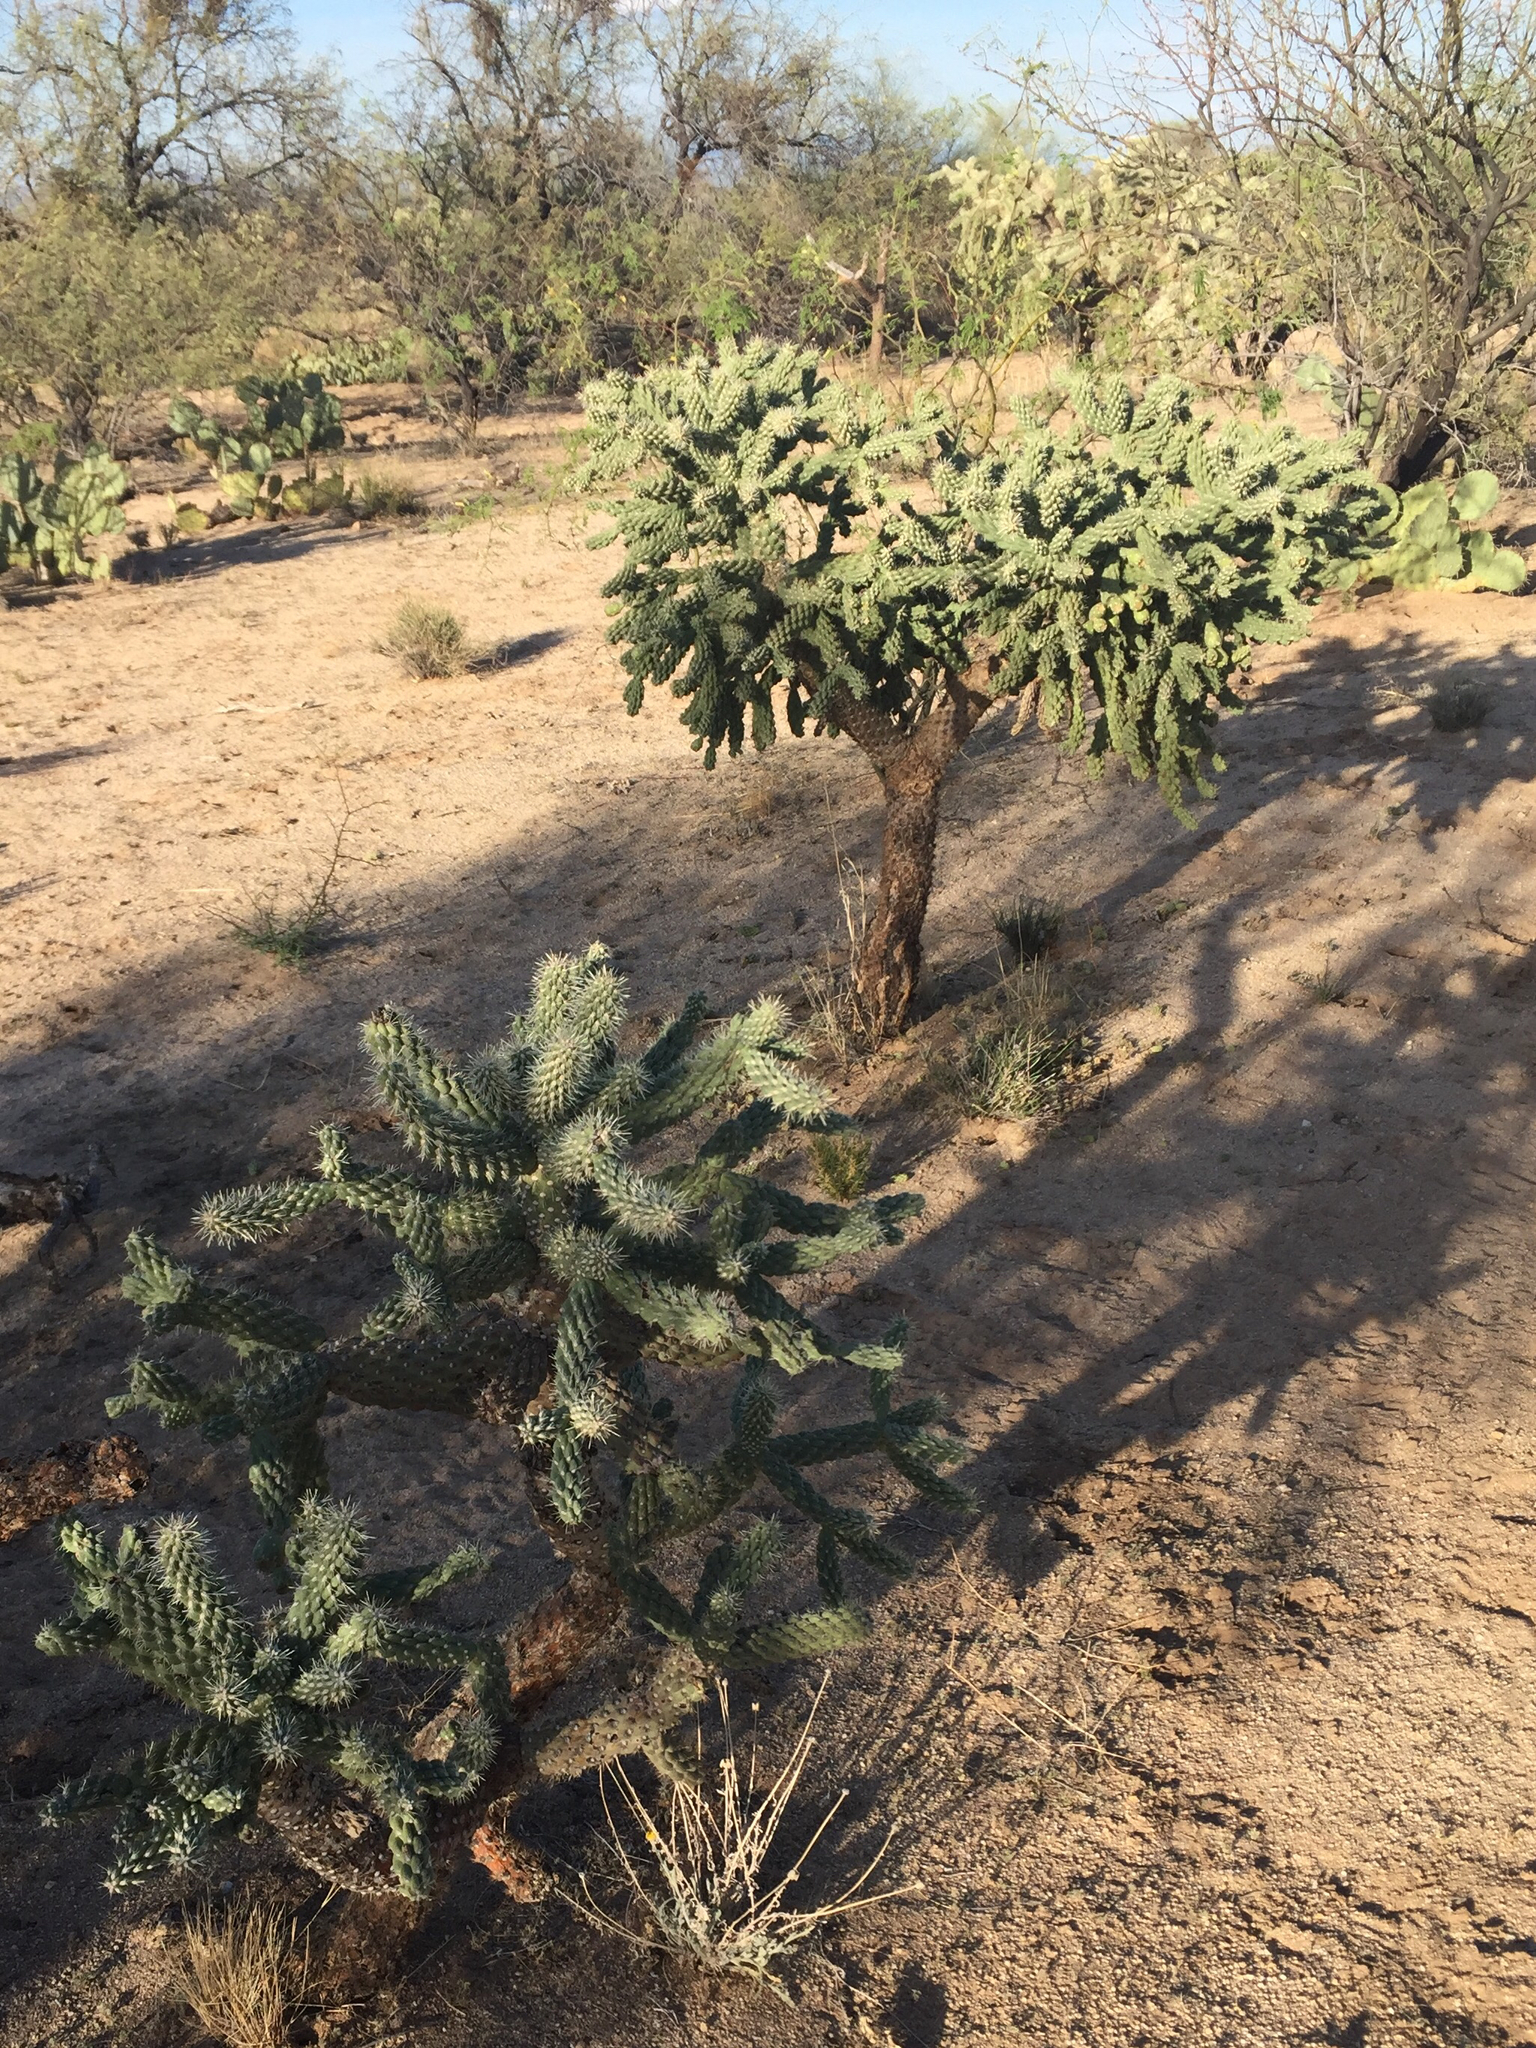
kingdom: Plantae
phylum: Tracheophyta
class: Magnoliopsida
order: Caryophyllales
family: Cactaceae
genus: Cylindropuntia
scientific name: Cylindropuntia fulgida
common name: Jumping cholla
